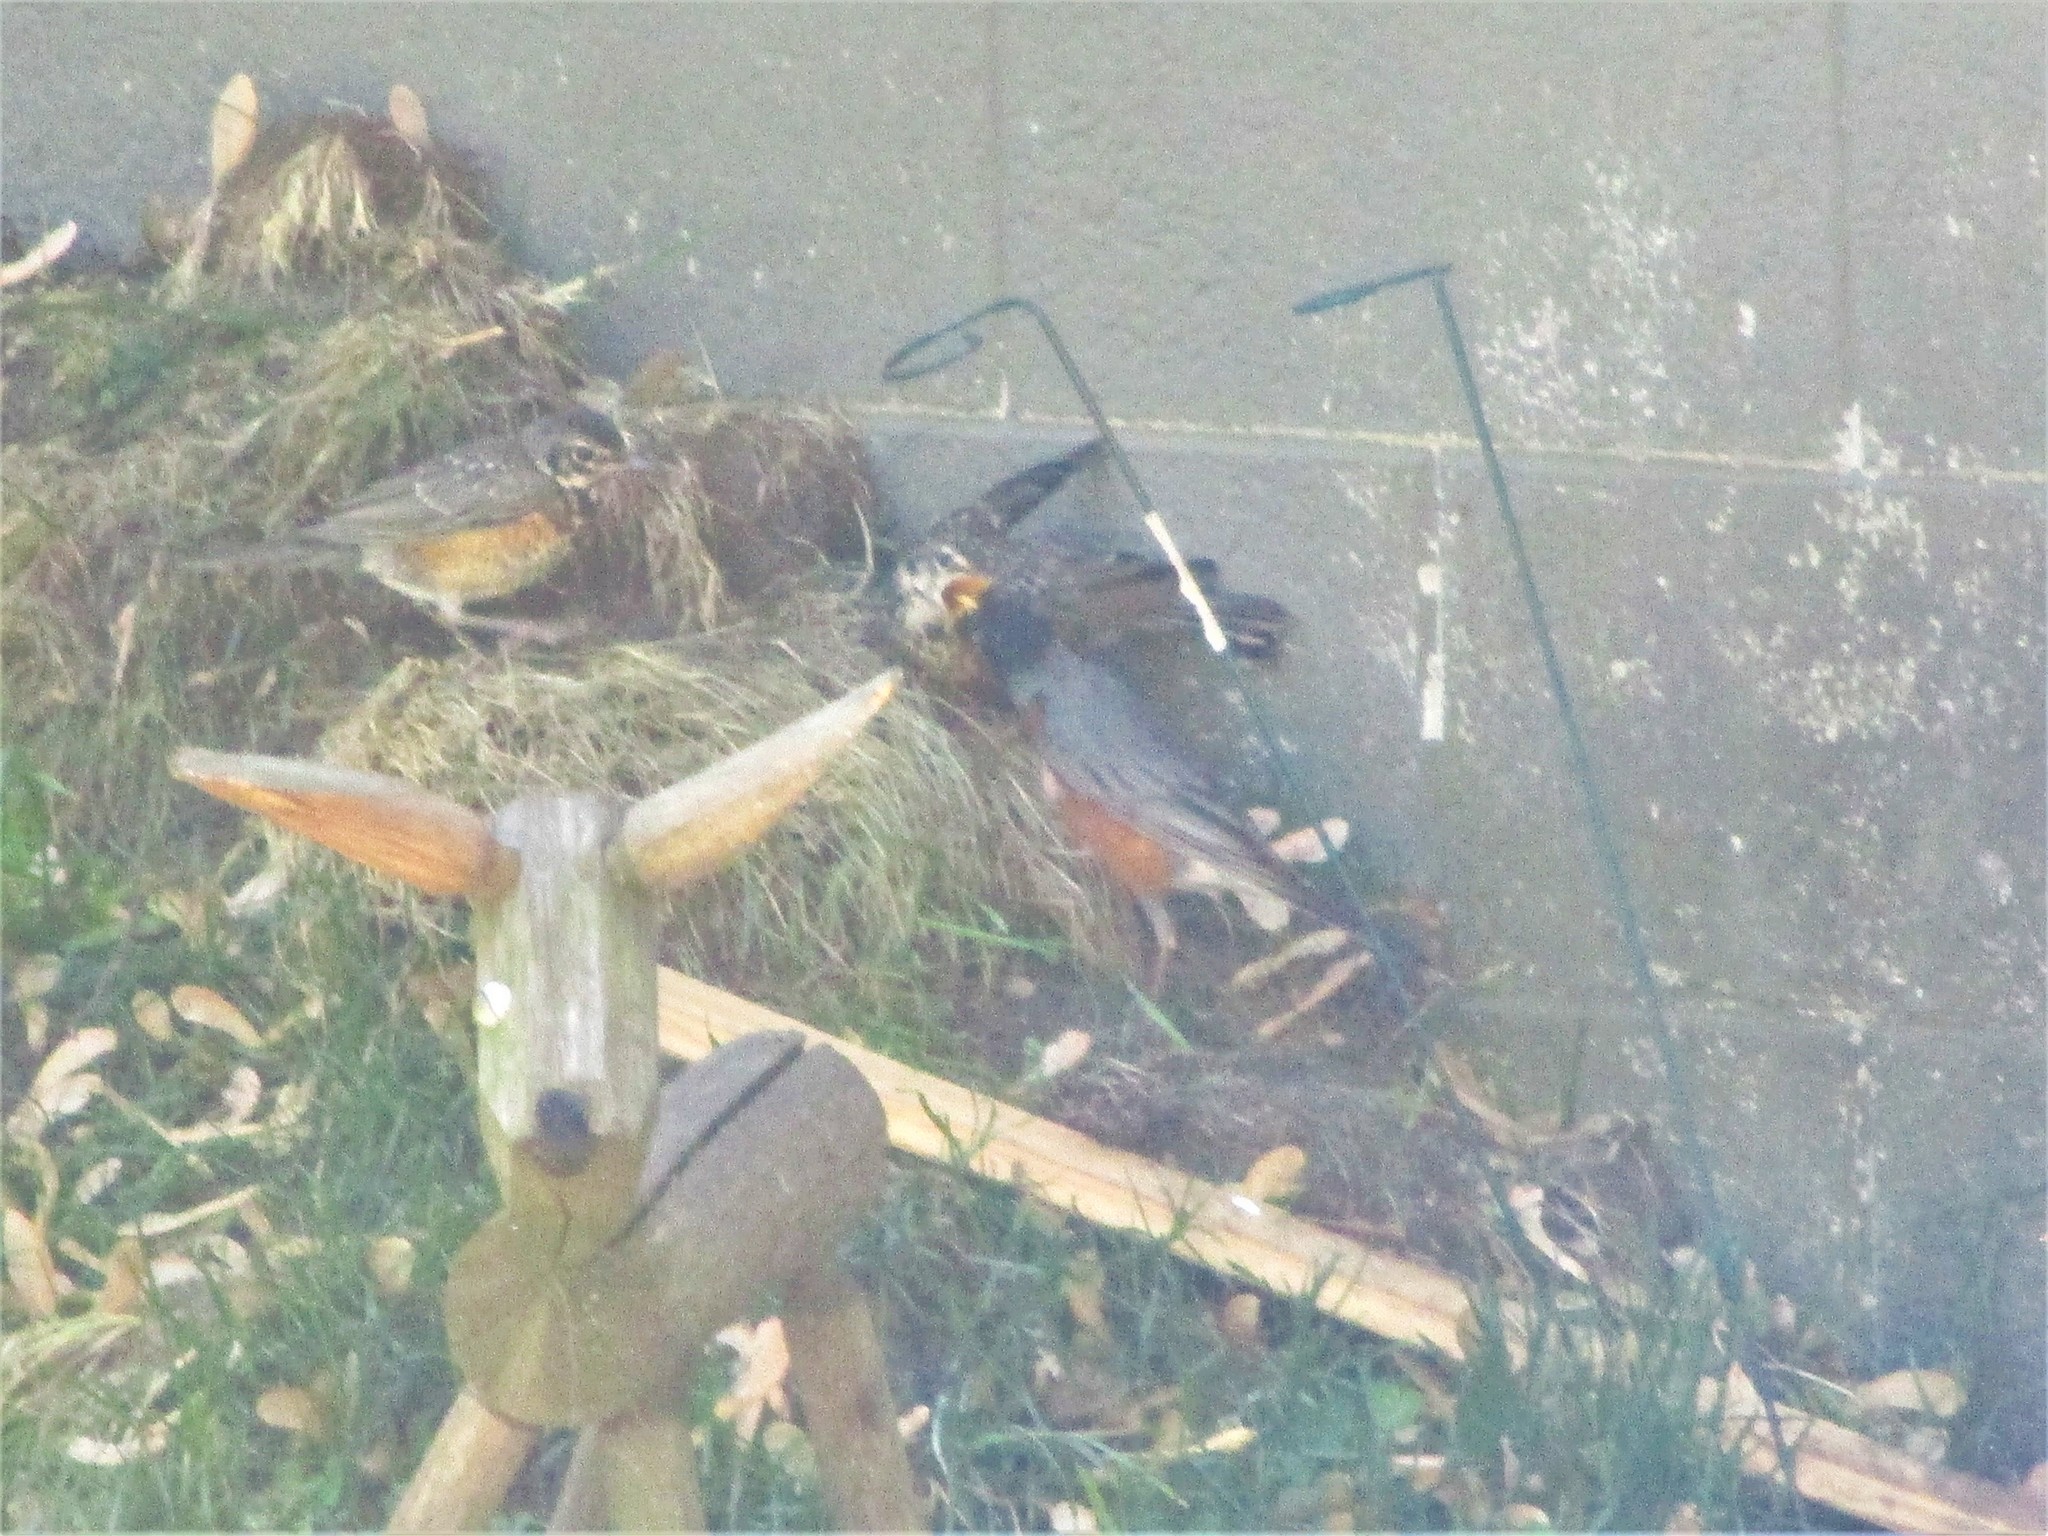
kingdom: Animalia
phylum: Chordata
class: Aves
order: Passeriformes
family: Turdidae
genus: Turdus
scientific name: Turdus migratorius
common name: American robin
